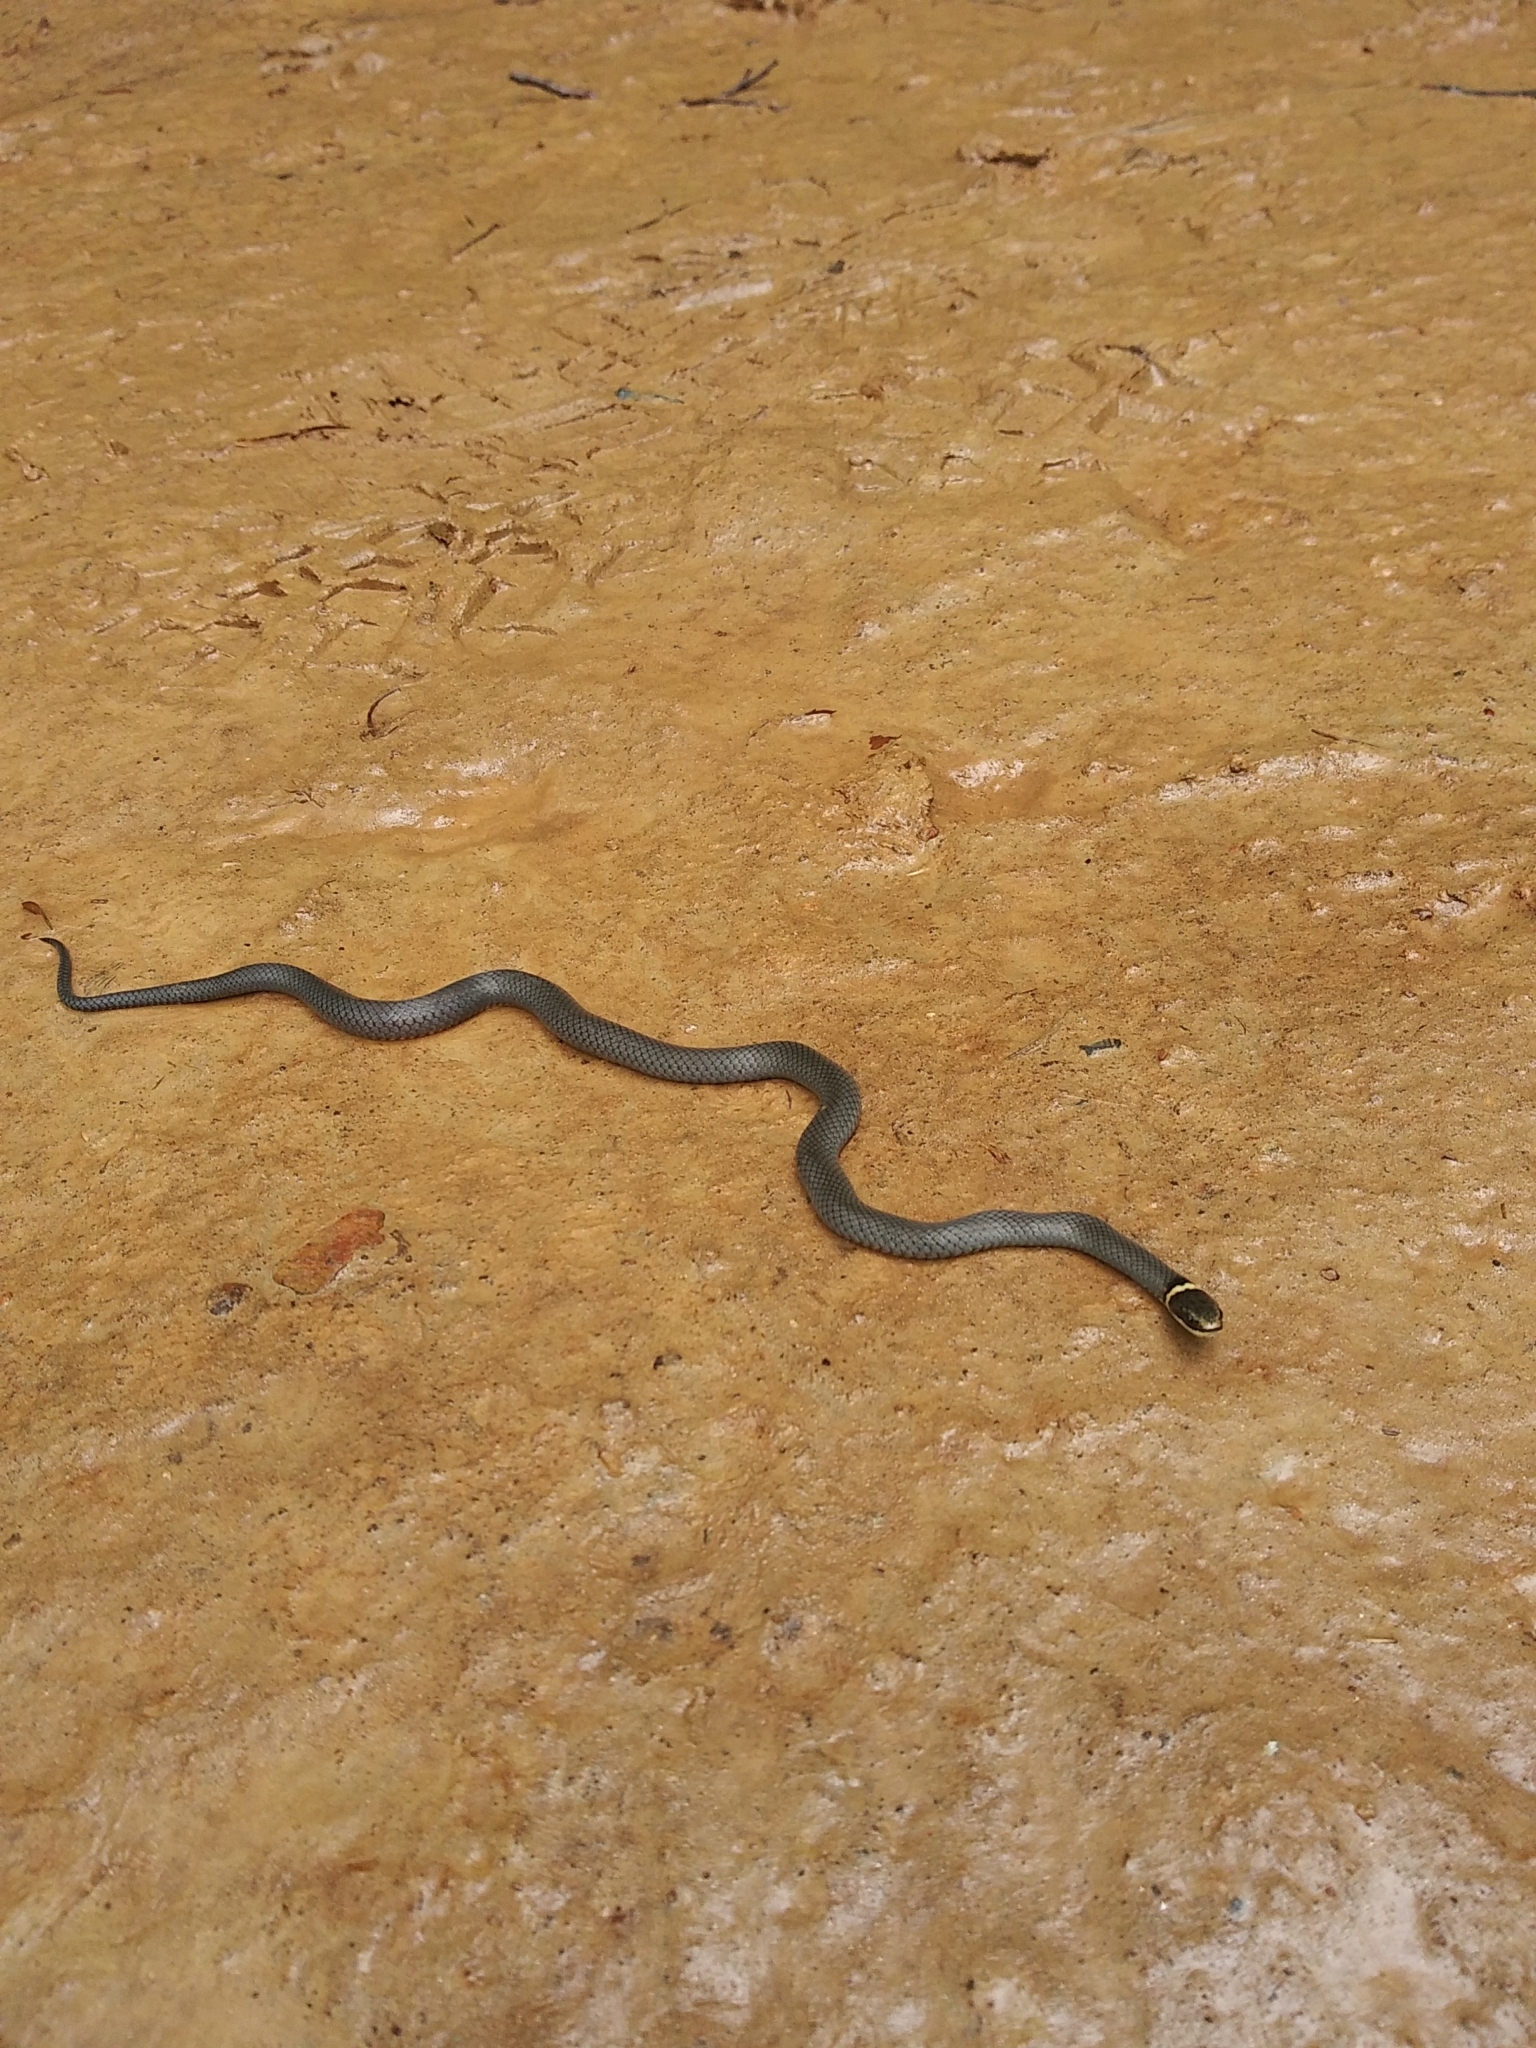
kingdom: Animalia
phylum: Chordata
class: Squamata
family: Colubridae
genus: Diadophis
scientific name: Diadophis punctatus
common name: Ringneck snake
